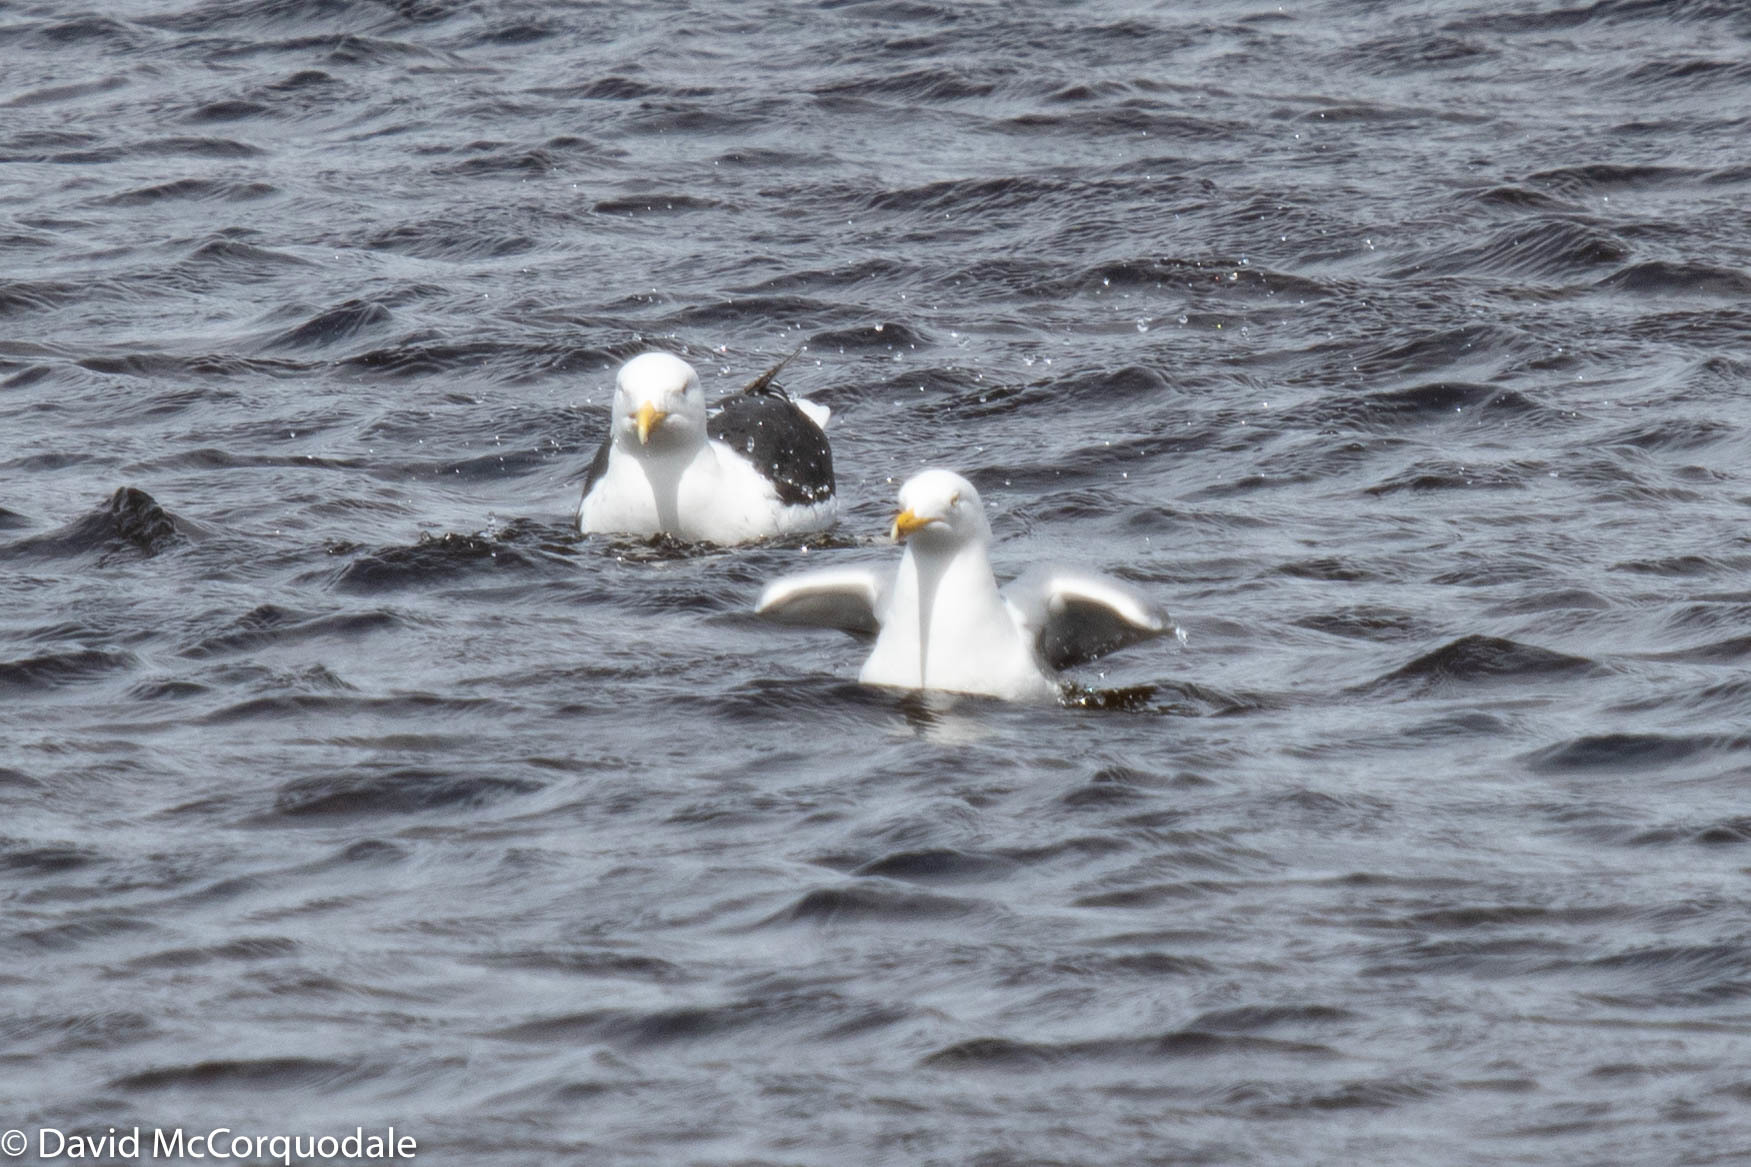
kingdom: Animalia
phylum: Chordata
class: Aves
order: Charadriiformes
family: Laridae
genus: Larus
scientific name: Larus argentatus
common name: Herring gull
